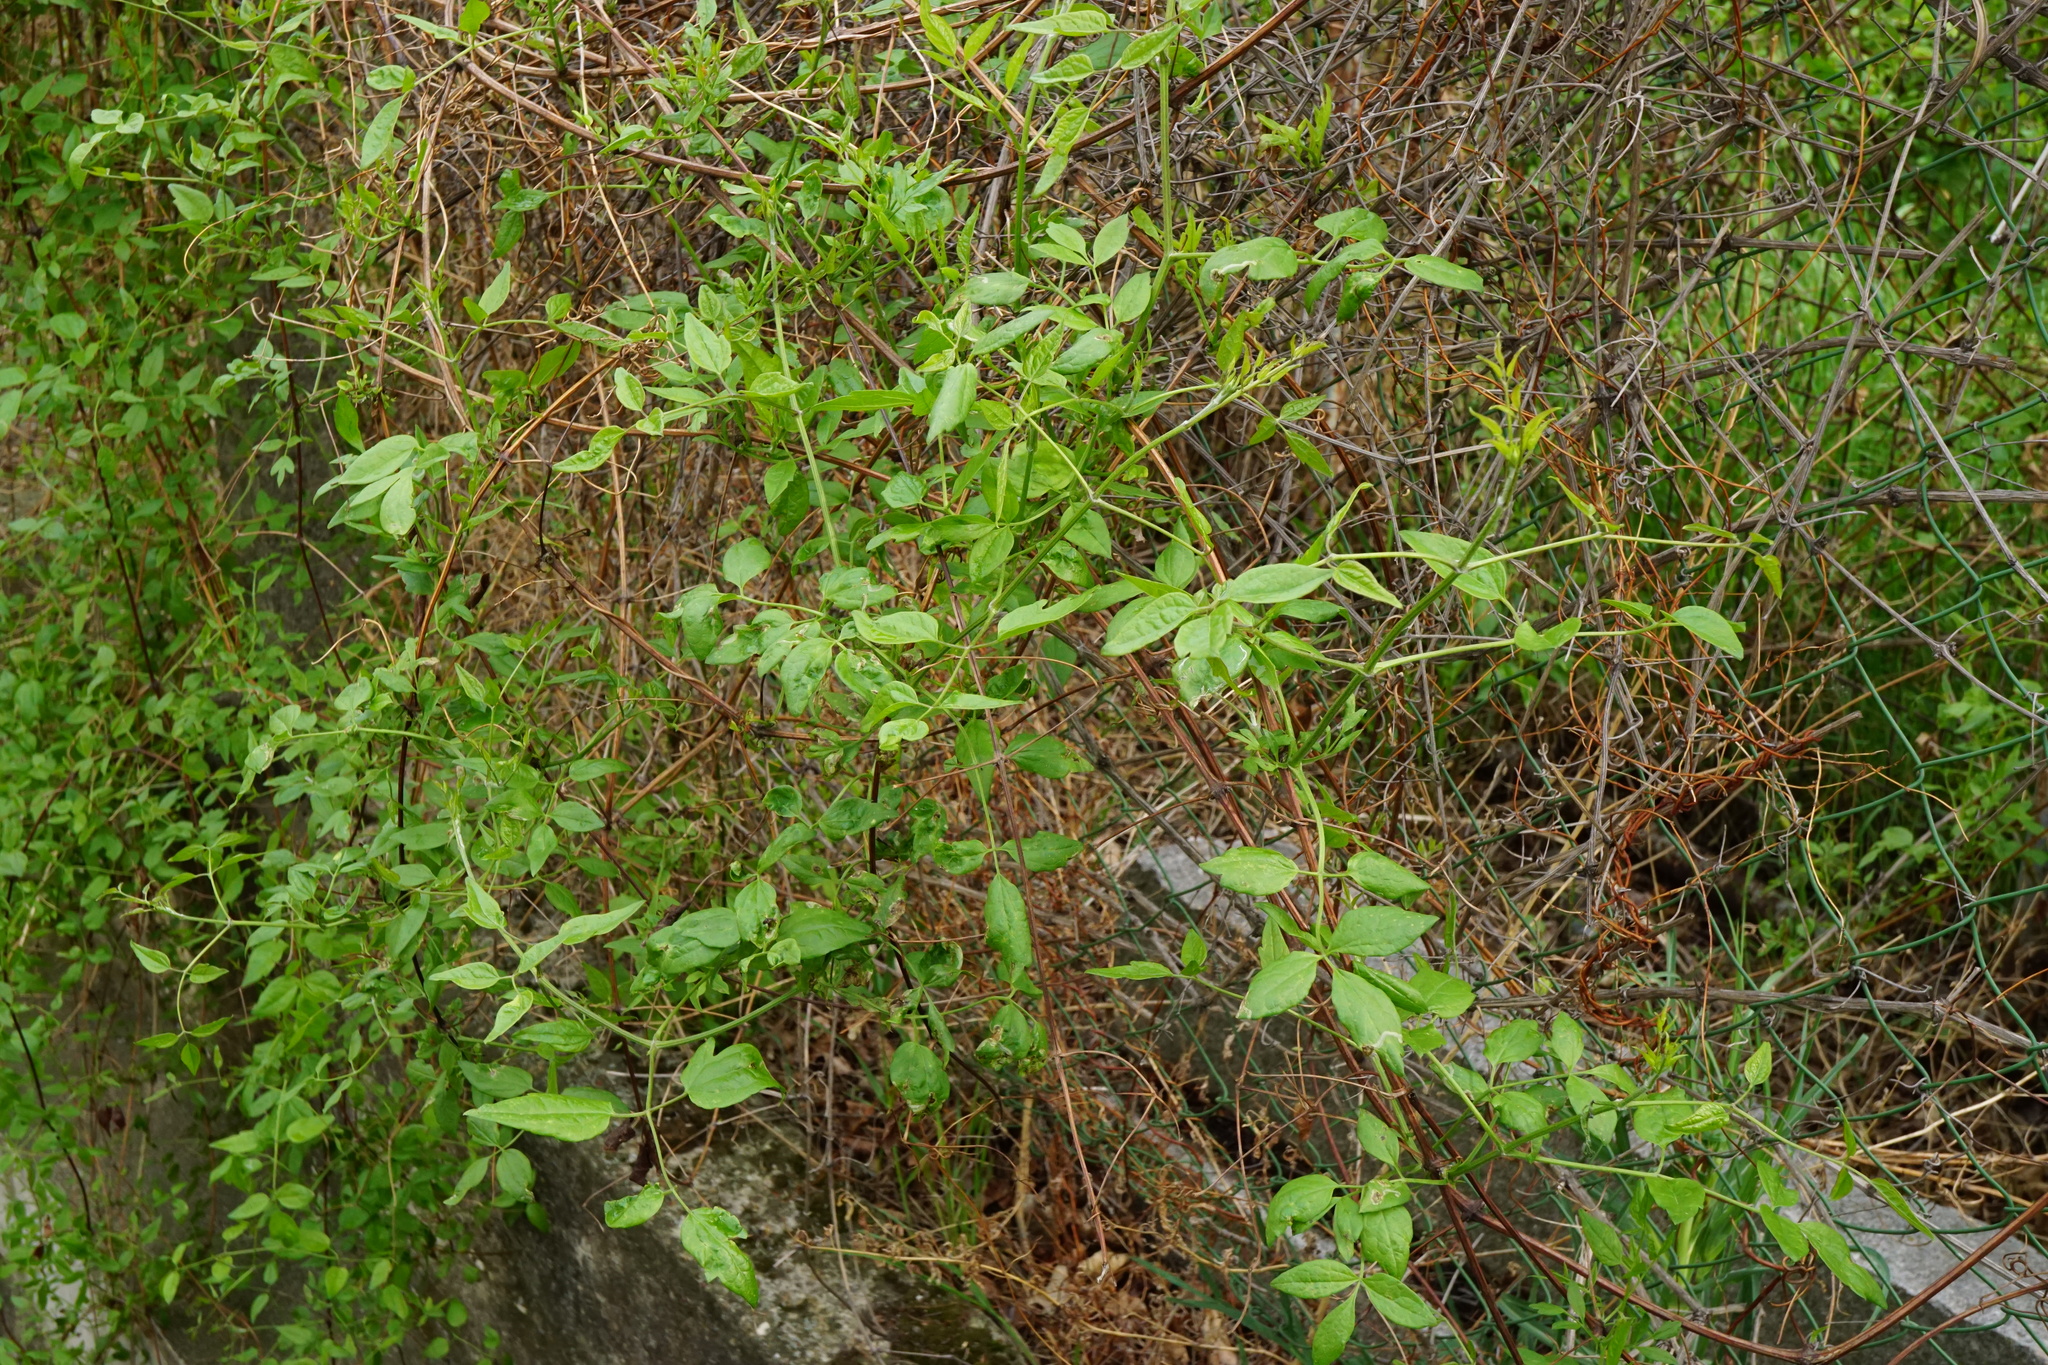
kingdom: Plantae
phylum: Tracheophyta
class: Magnoliopsida
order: Ranunculales
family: Ranunculaceae
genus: Clematis
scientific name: Clematis vitalba
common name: Evergreen clematis
